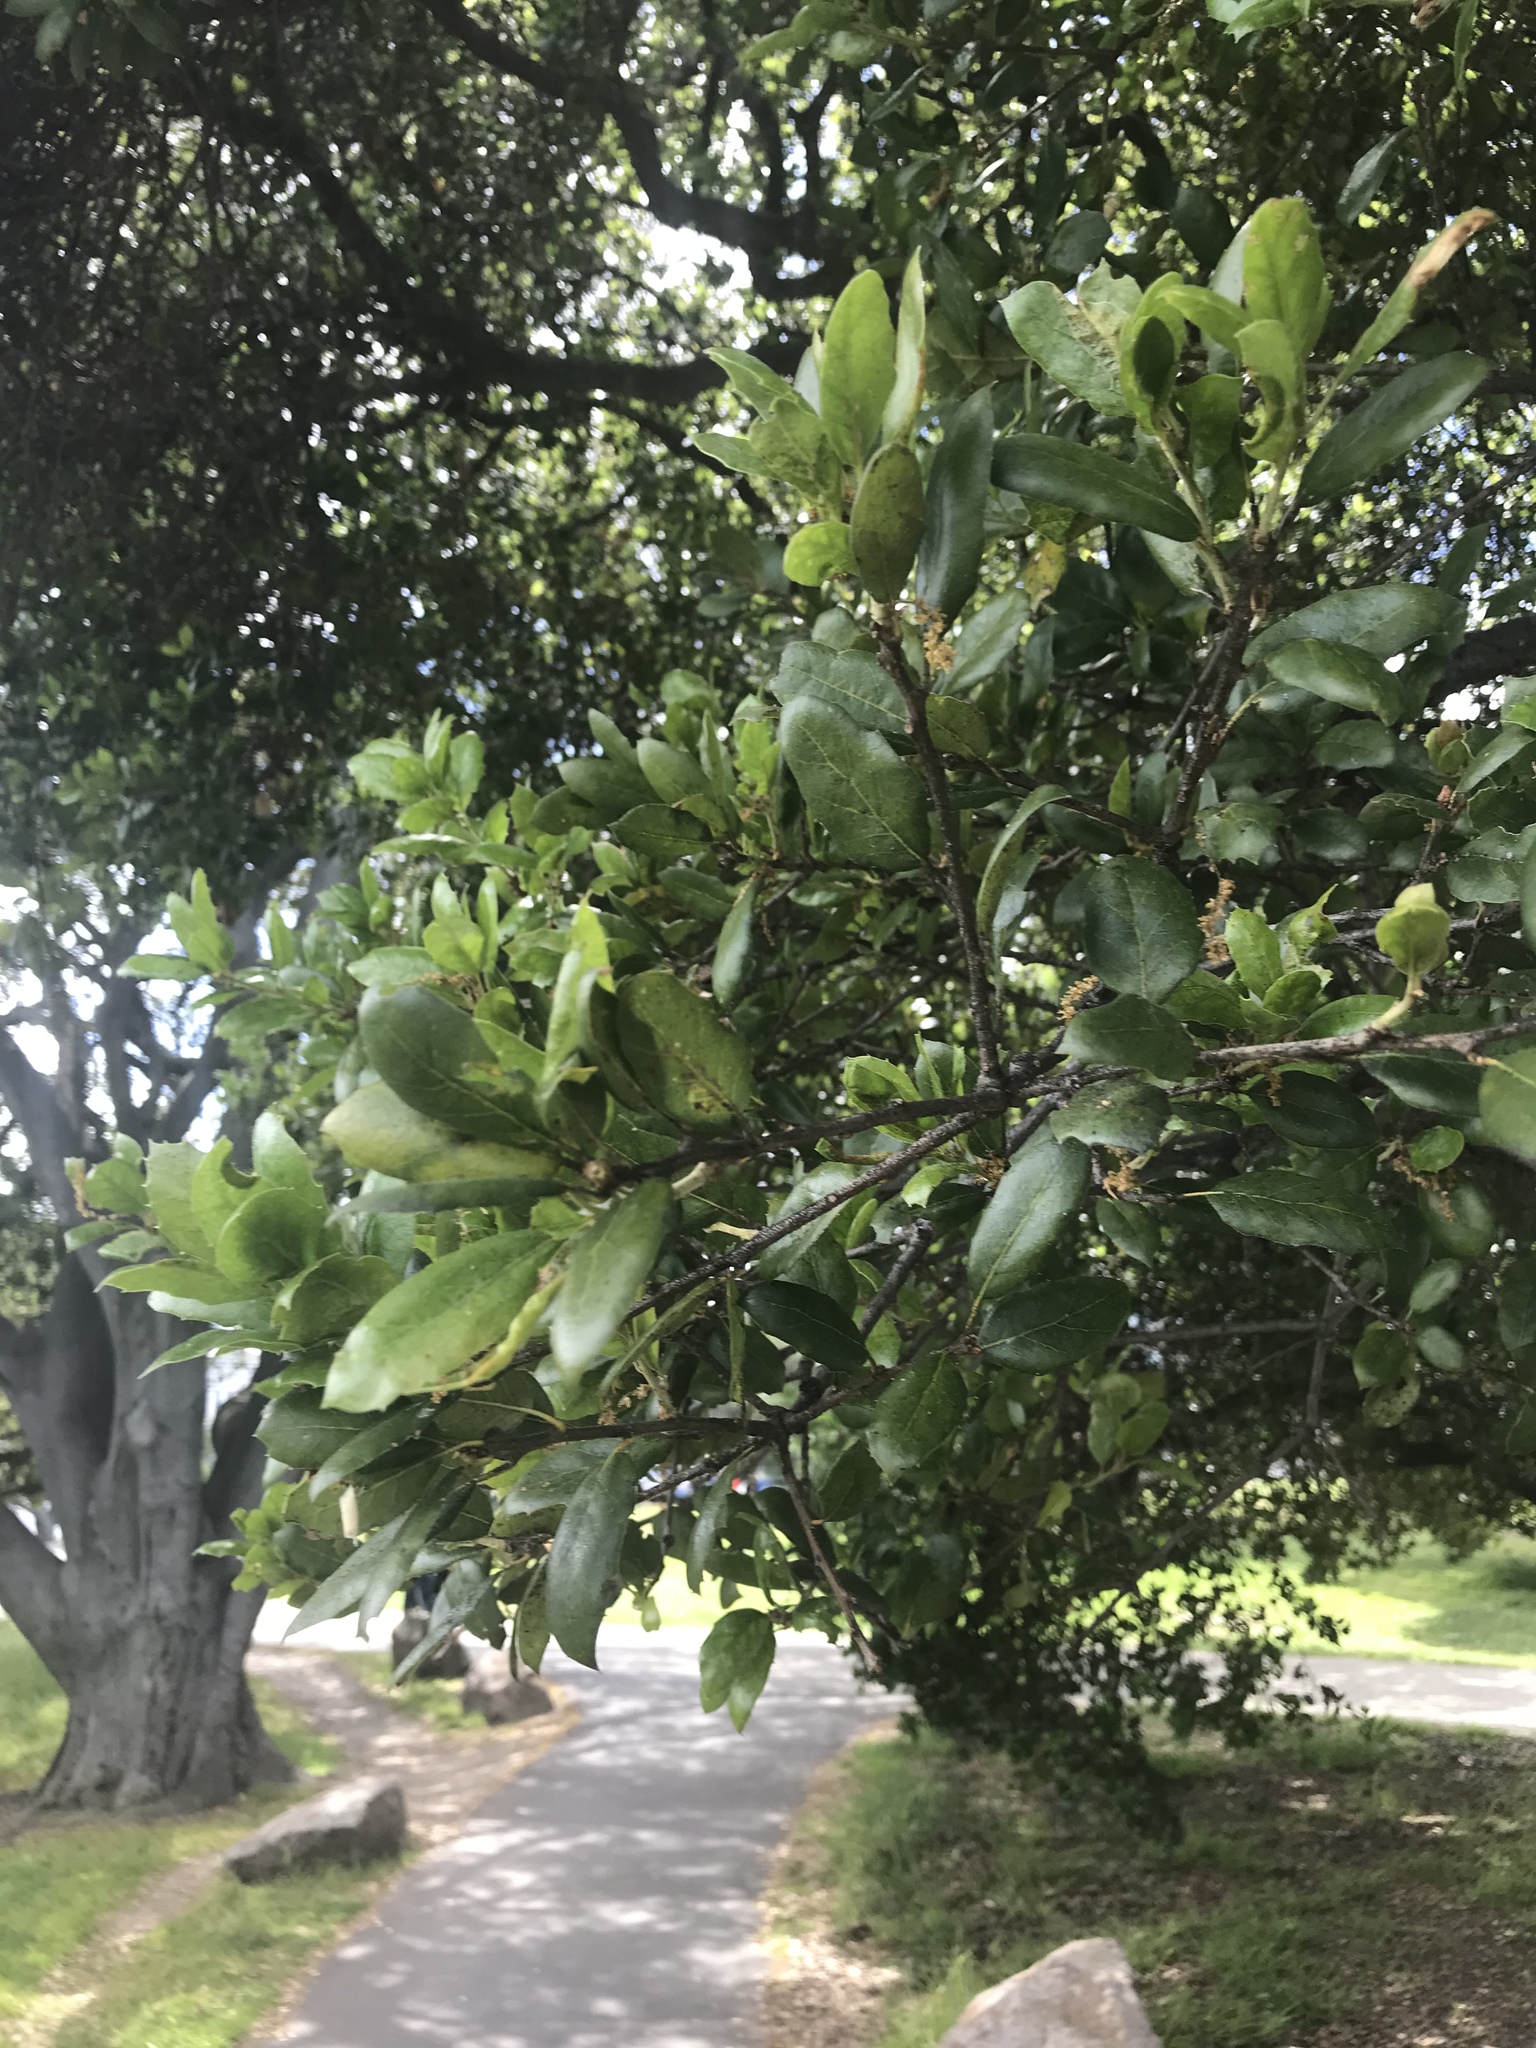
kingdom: Plantae
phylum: Tracheophyta
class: Magnoliopsida
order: Fagales
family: Fagaceae
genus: Quercus
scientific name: Quercus agrifolia
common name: California live oak
